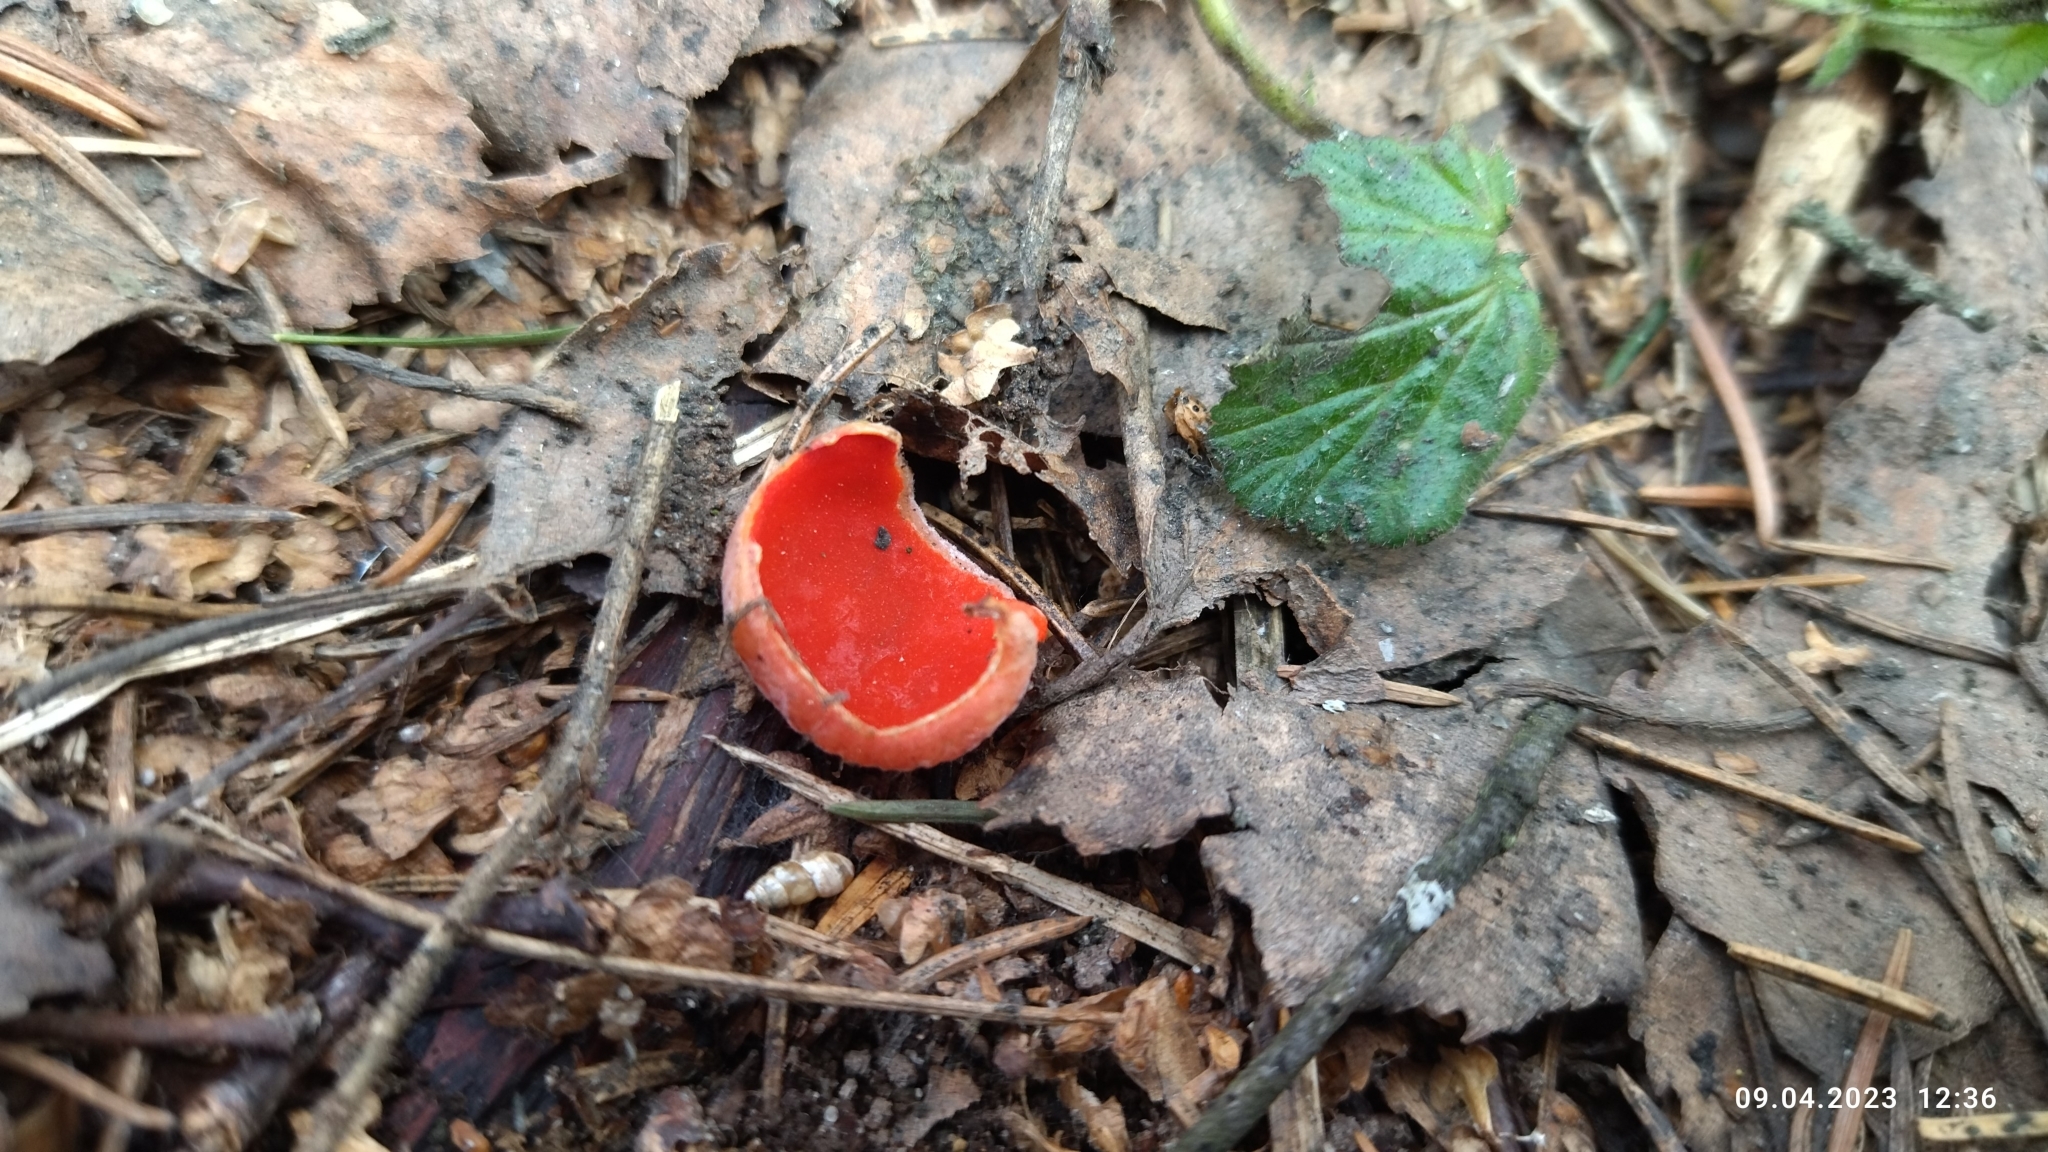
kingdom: Fungi
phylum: Ascomycota
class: Pezizomycetes
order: Pezizales
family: Sarcoscyphaceae
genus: Sarcoscypha
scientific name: Sarcoscypha austriaca
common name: Scarlet elfcup
